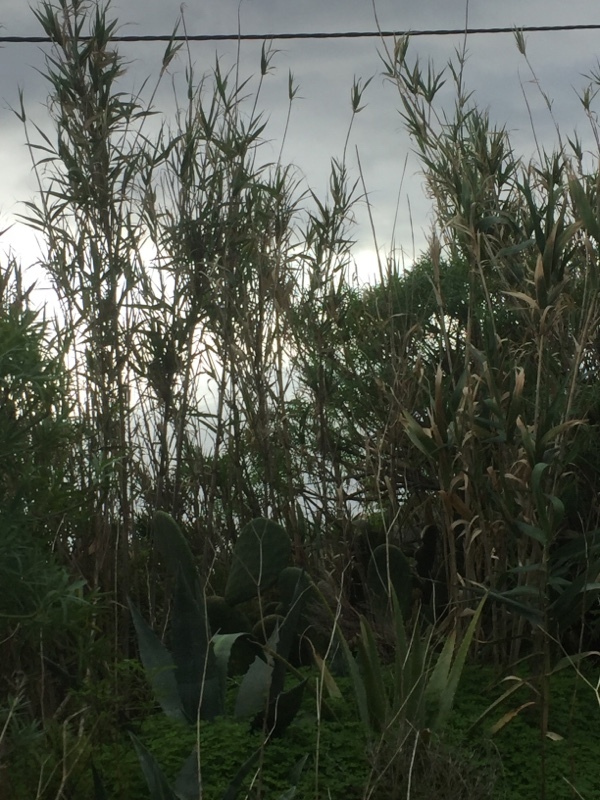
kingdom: Plantae
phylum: Tracheophyta
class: Liliopsida
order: Poales
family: Poaceae
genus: Arundo
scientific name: Arundo donax
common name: Giant reed
